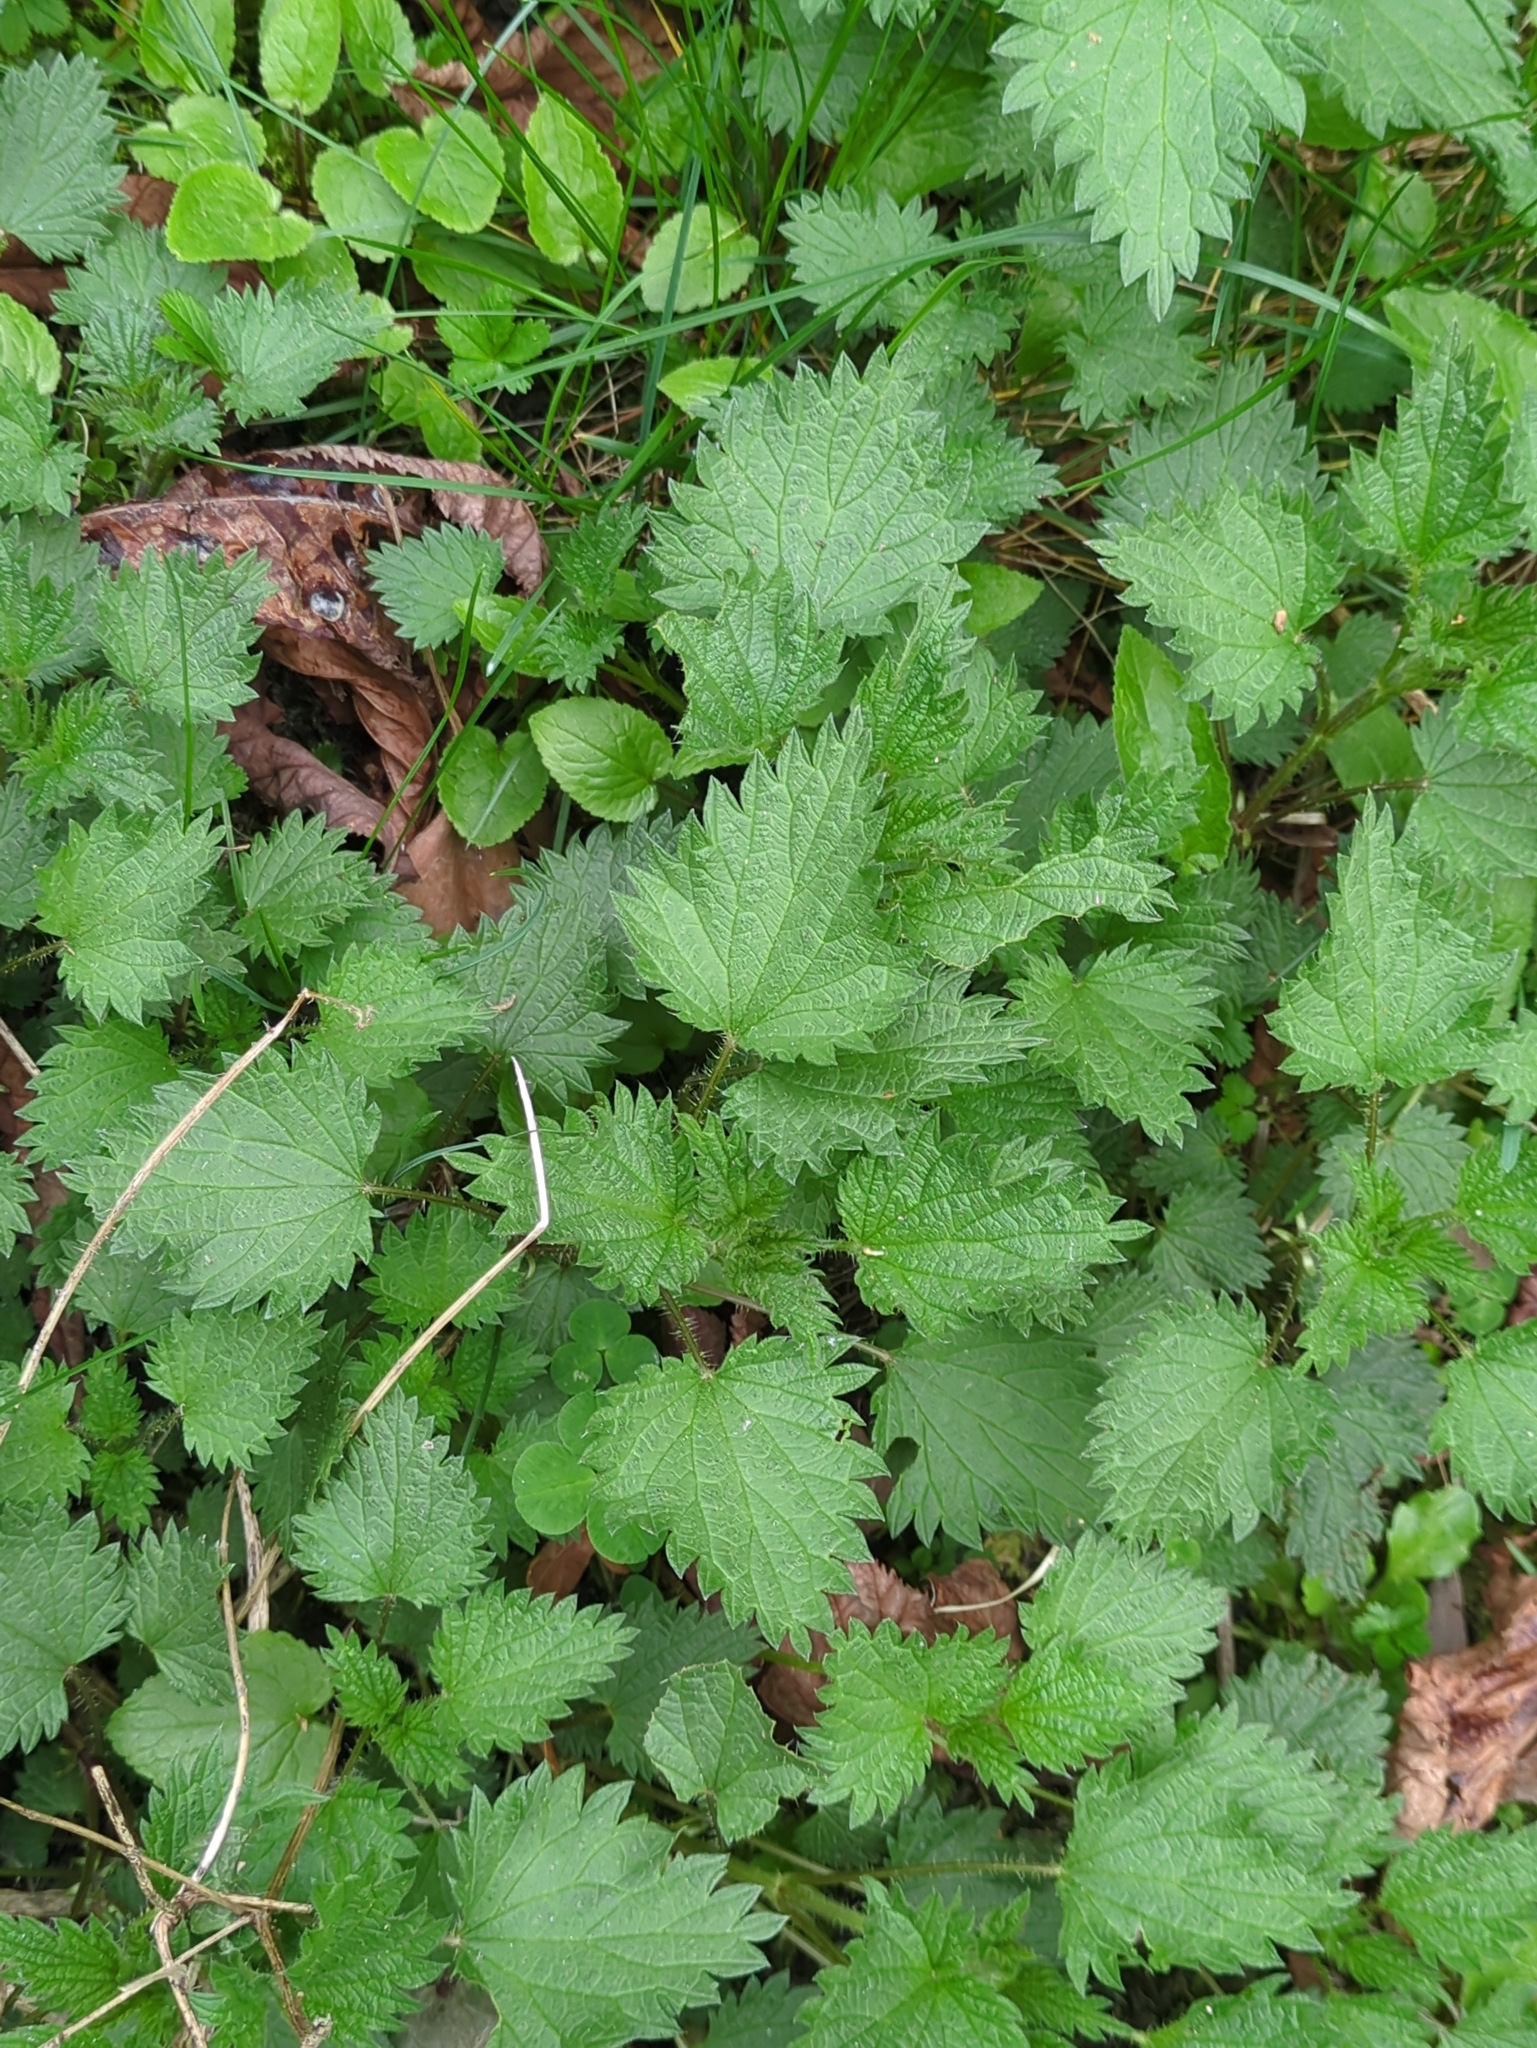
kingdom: Plantae
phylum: Tracheophyta
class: Magnoliopsida
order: Rosales
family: Urticaceae
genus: Urtica
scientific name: Urtica dioica
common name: Common nettle
